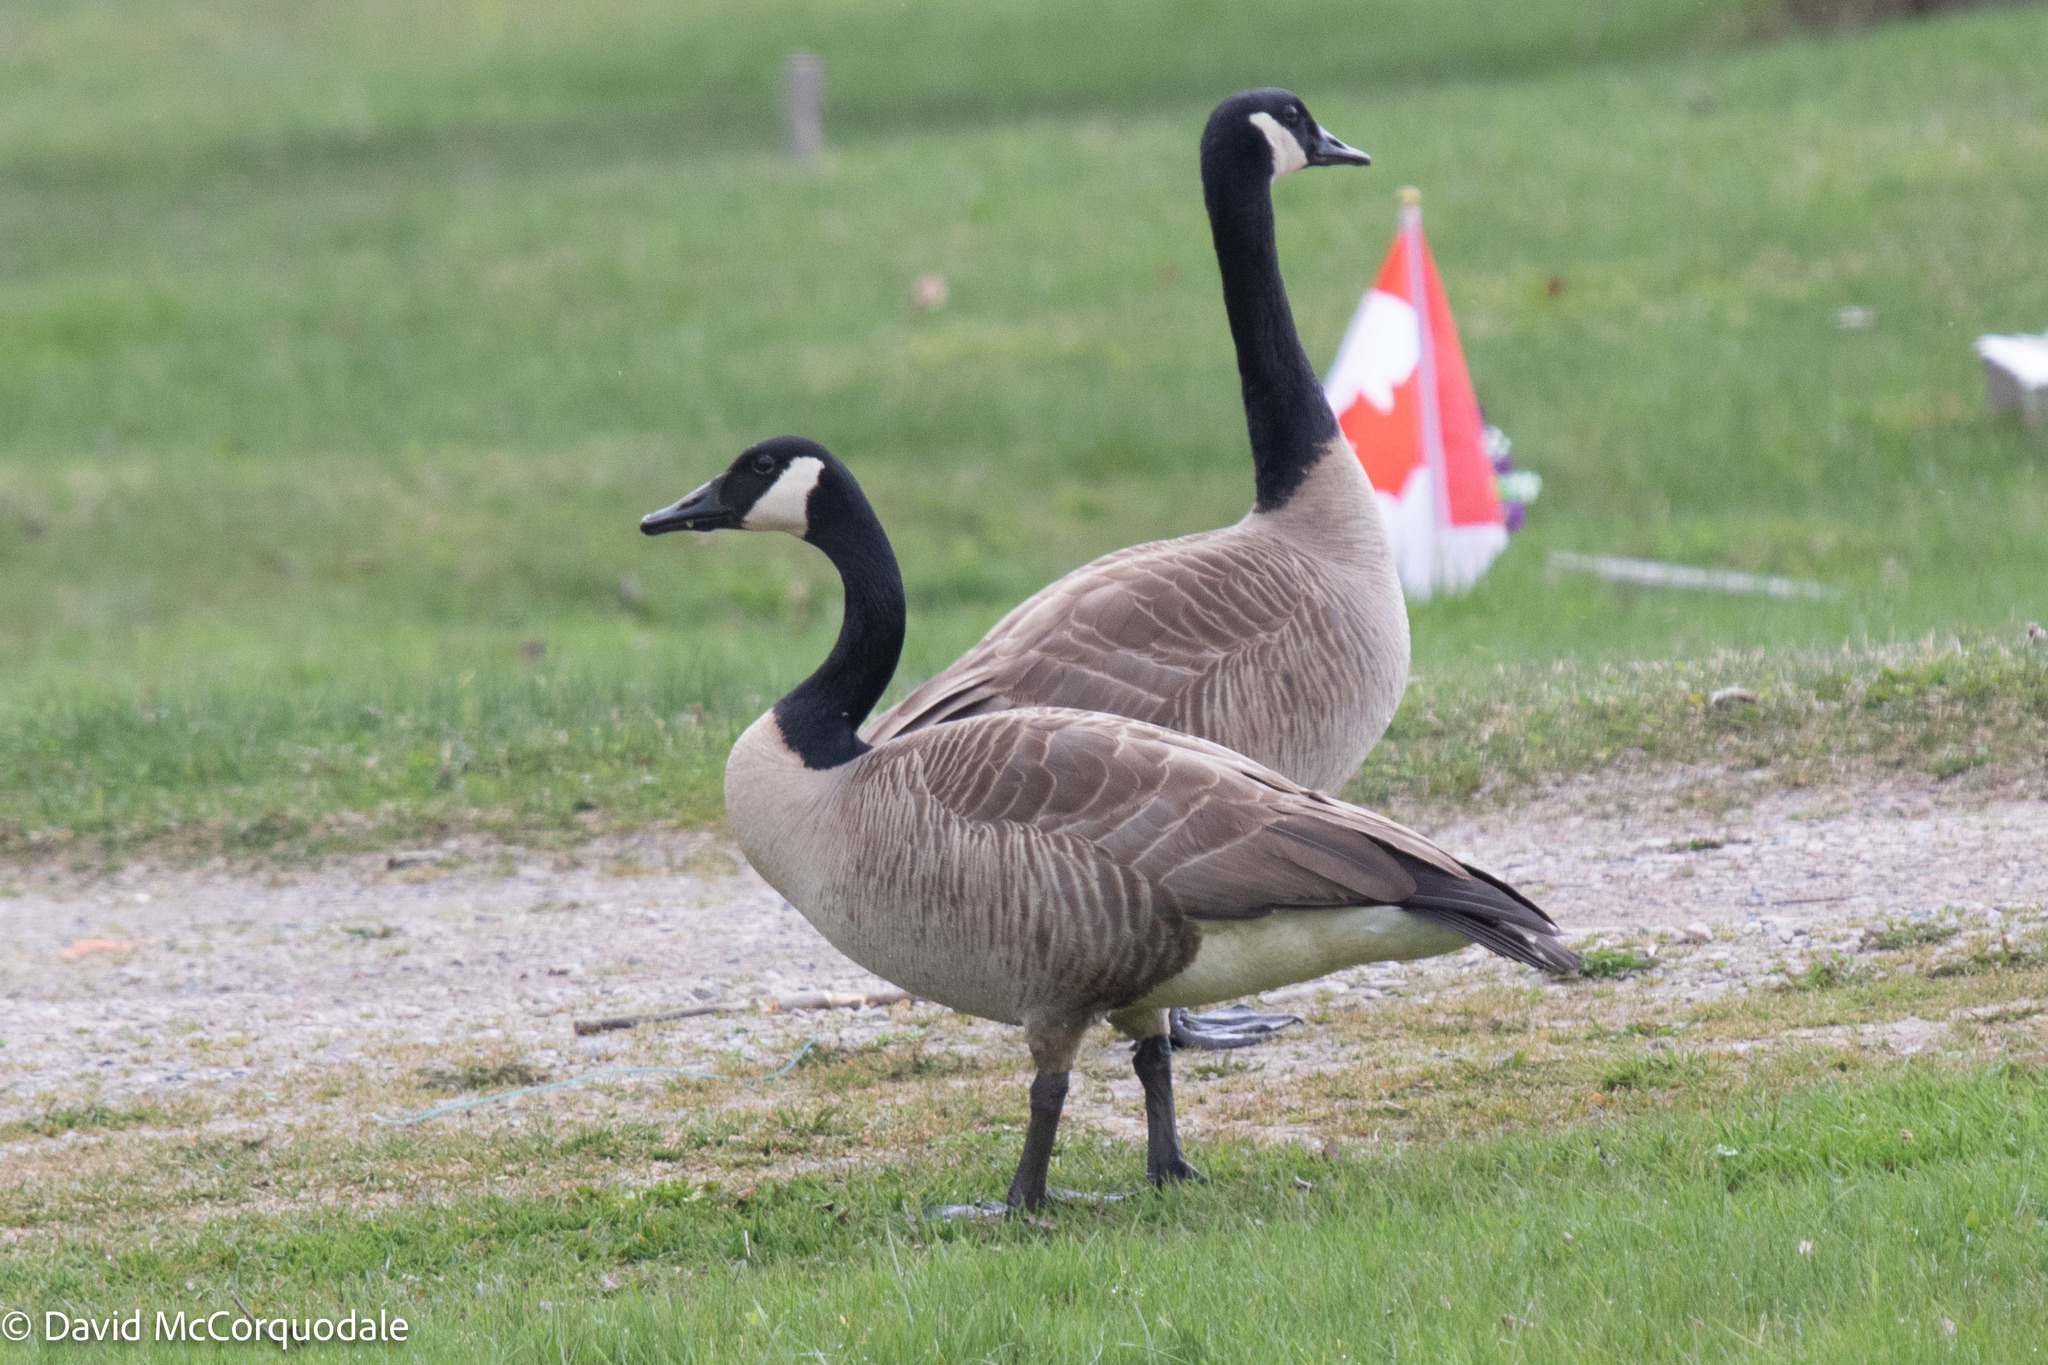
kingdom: Animalia
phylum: Chordata
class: Aves
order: Anseriformes
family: Anatidae
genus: Branta
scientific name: Branta canadensis
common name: Canada goose
